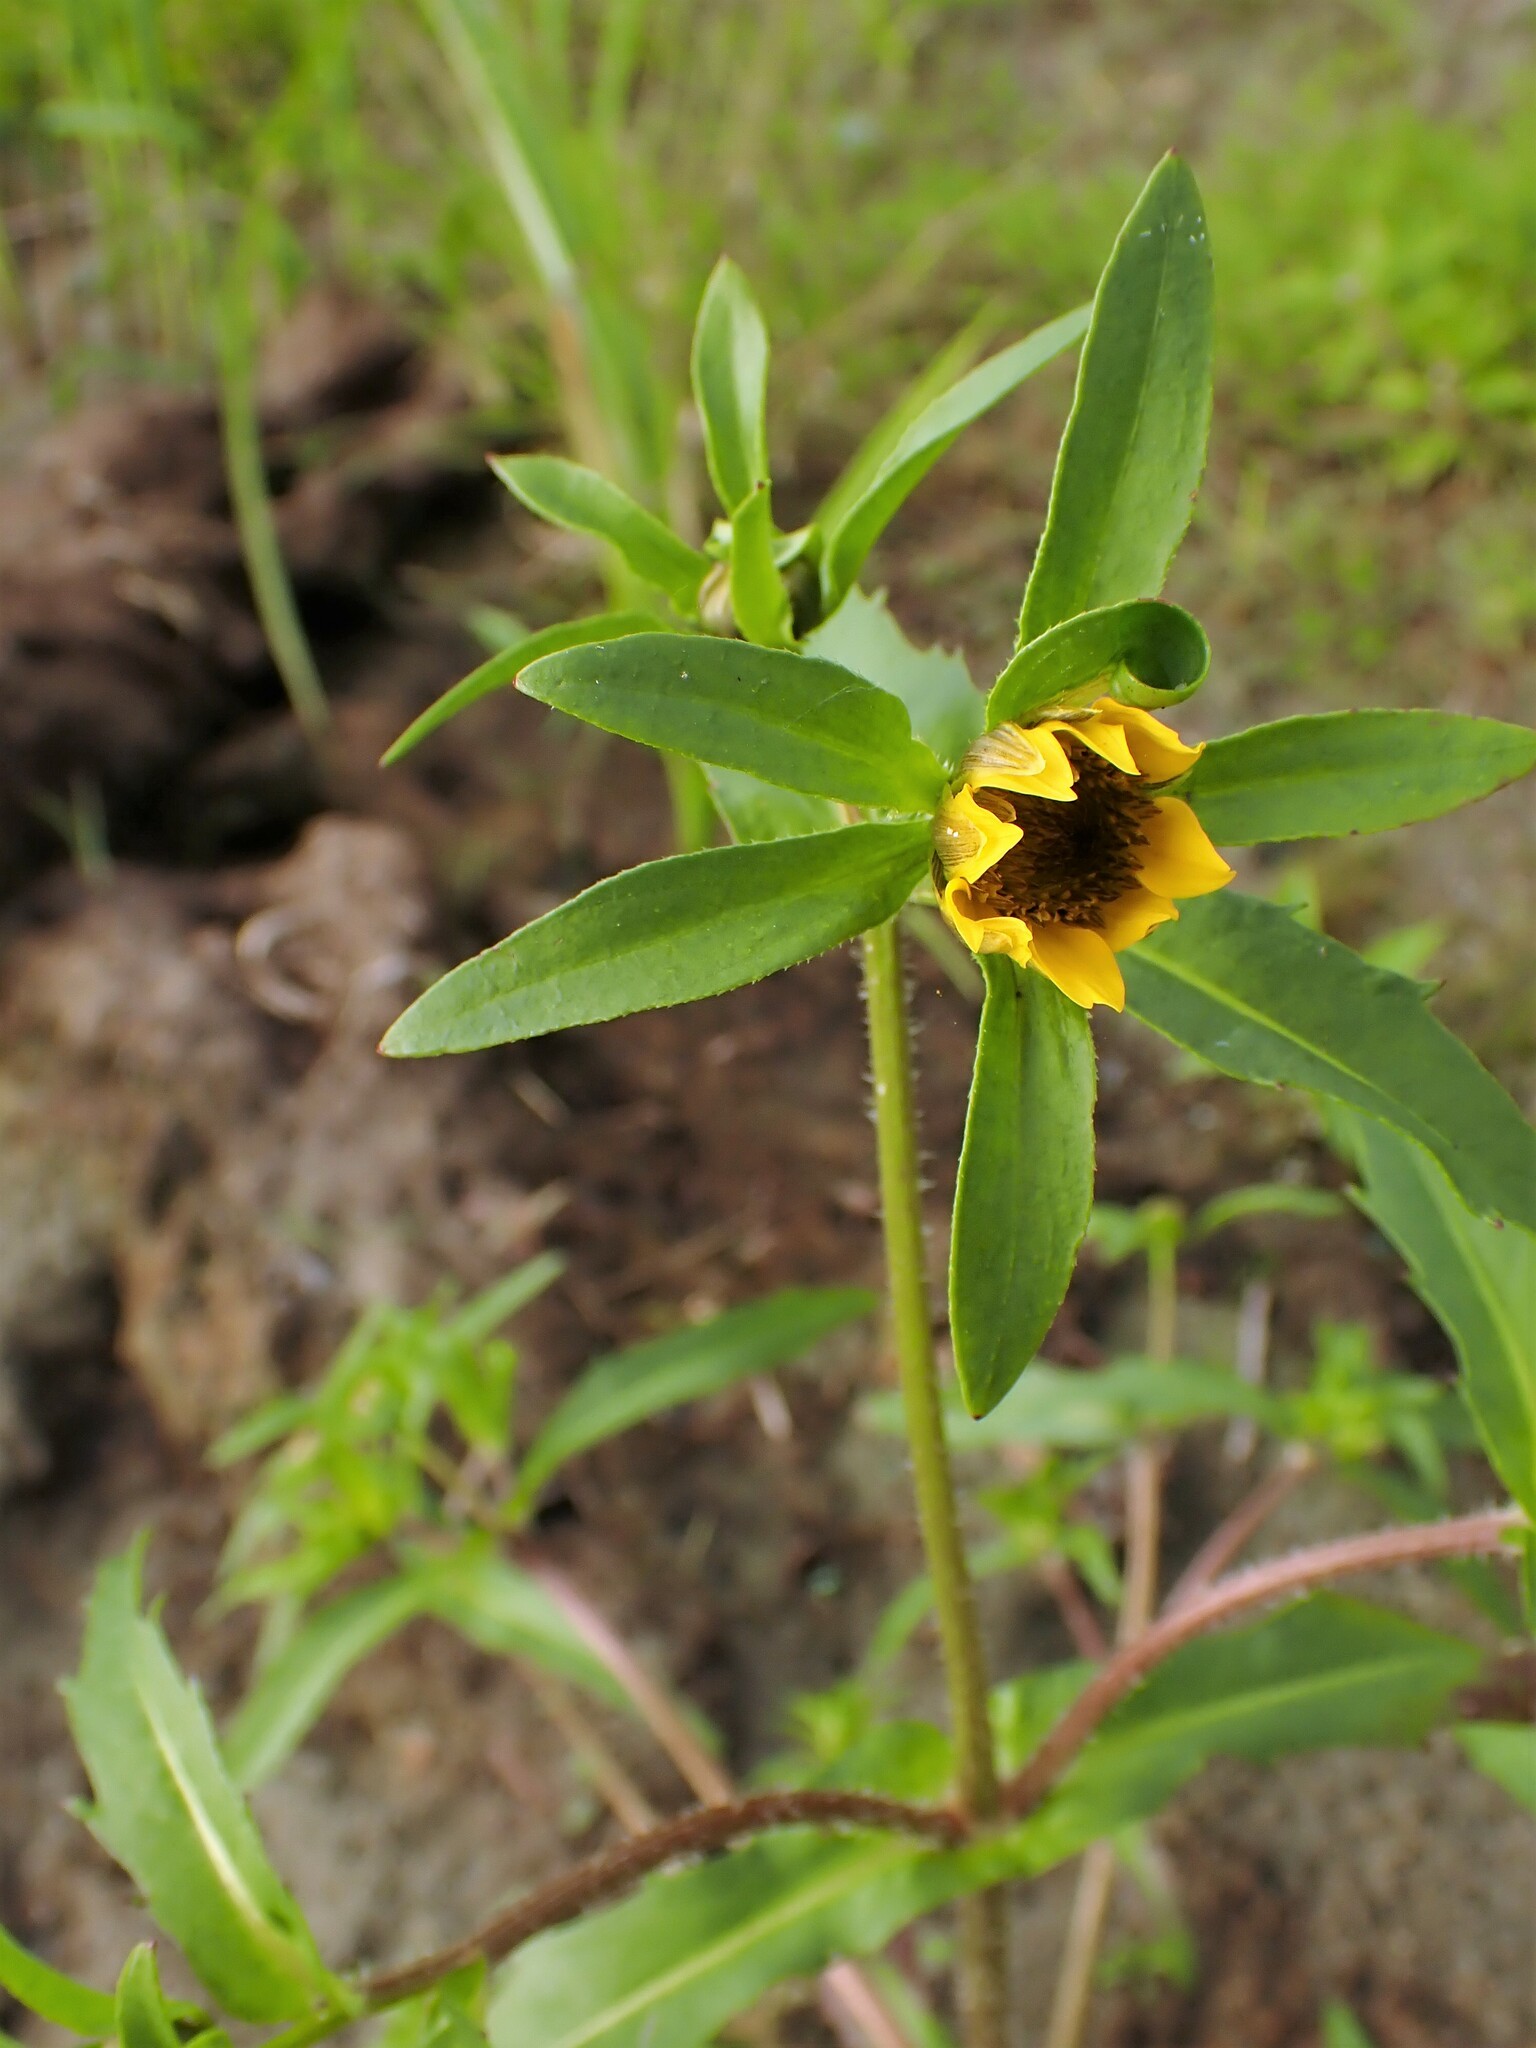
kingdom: Plantae
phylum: Tracheophyta
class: Magnoliopsida
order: Asterales
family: Asteraceae
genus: Bidens
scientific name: Bidens cernua
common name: Nodding bur-marigold
